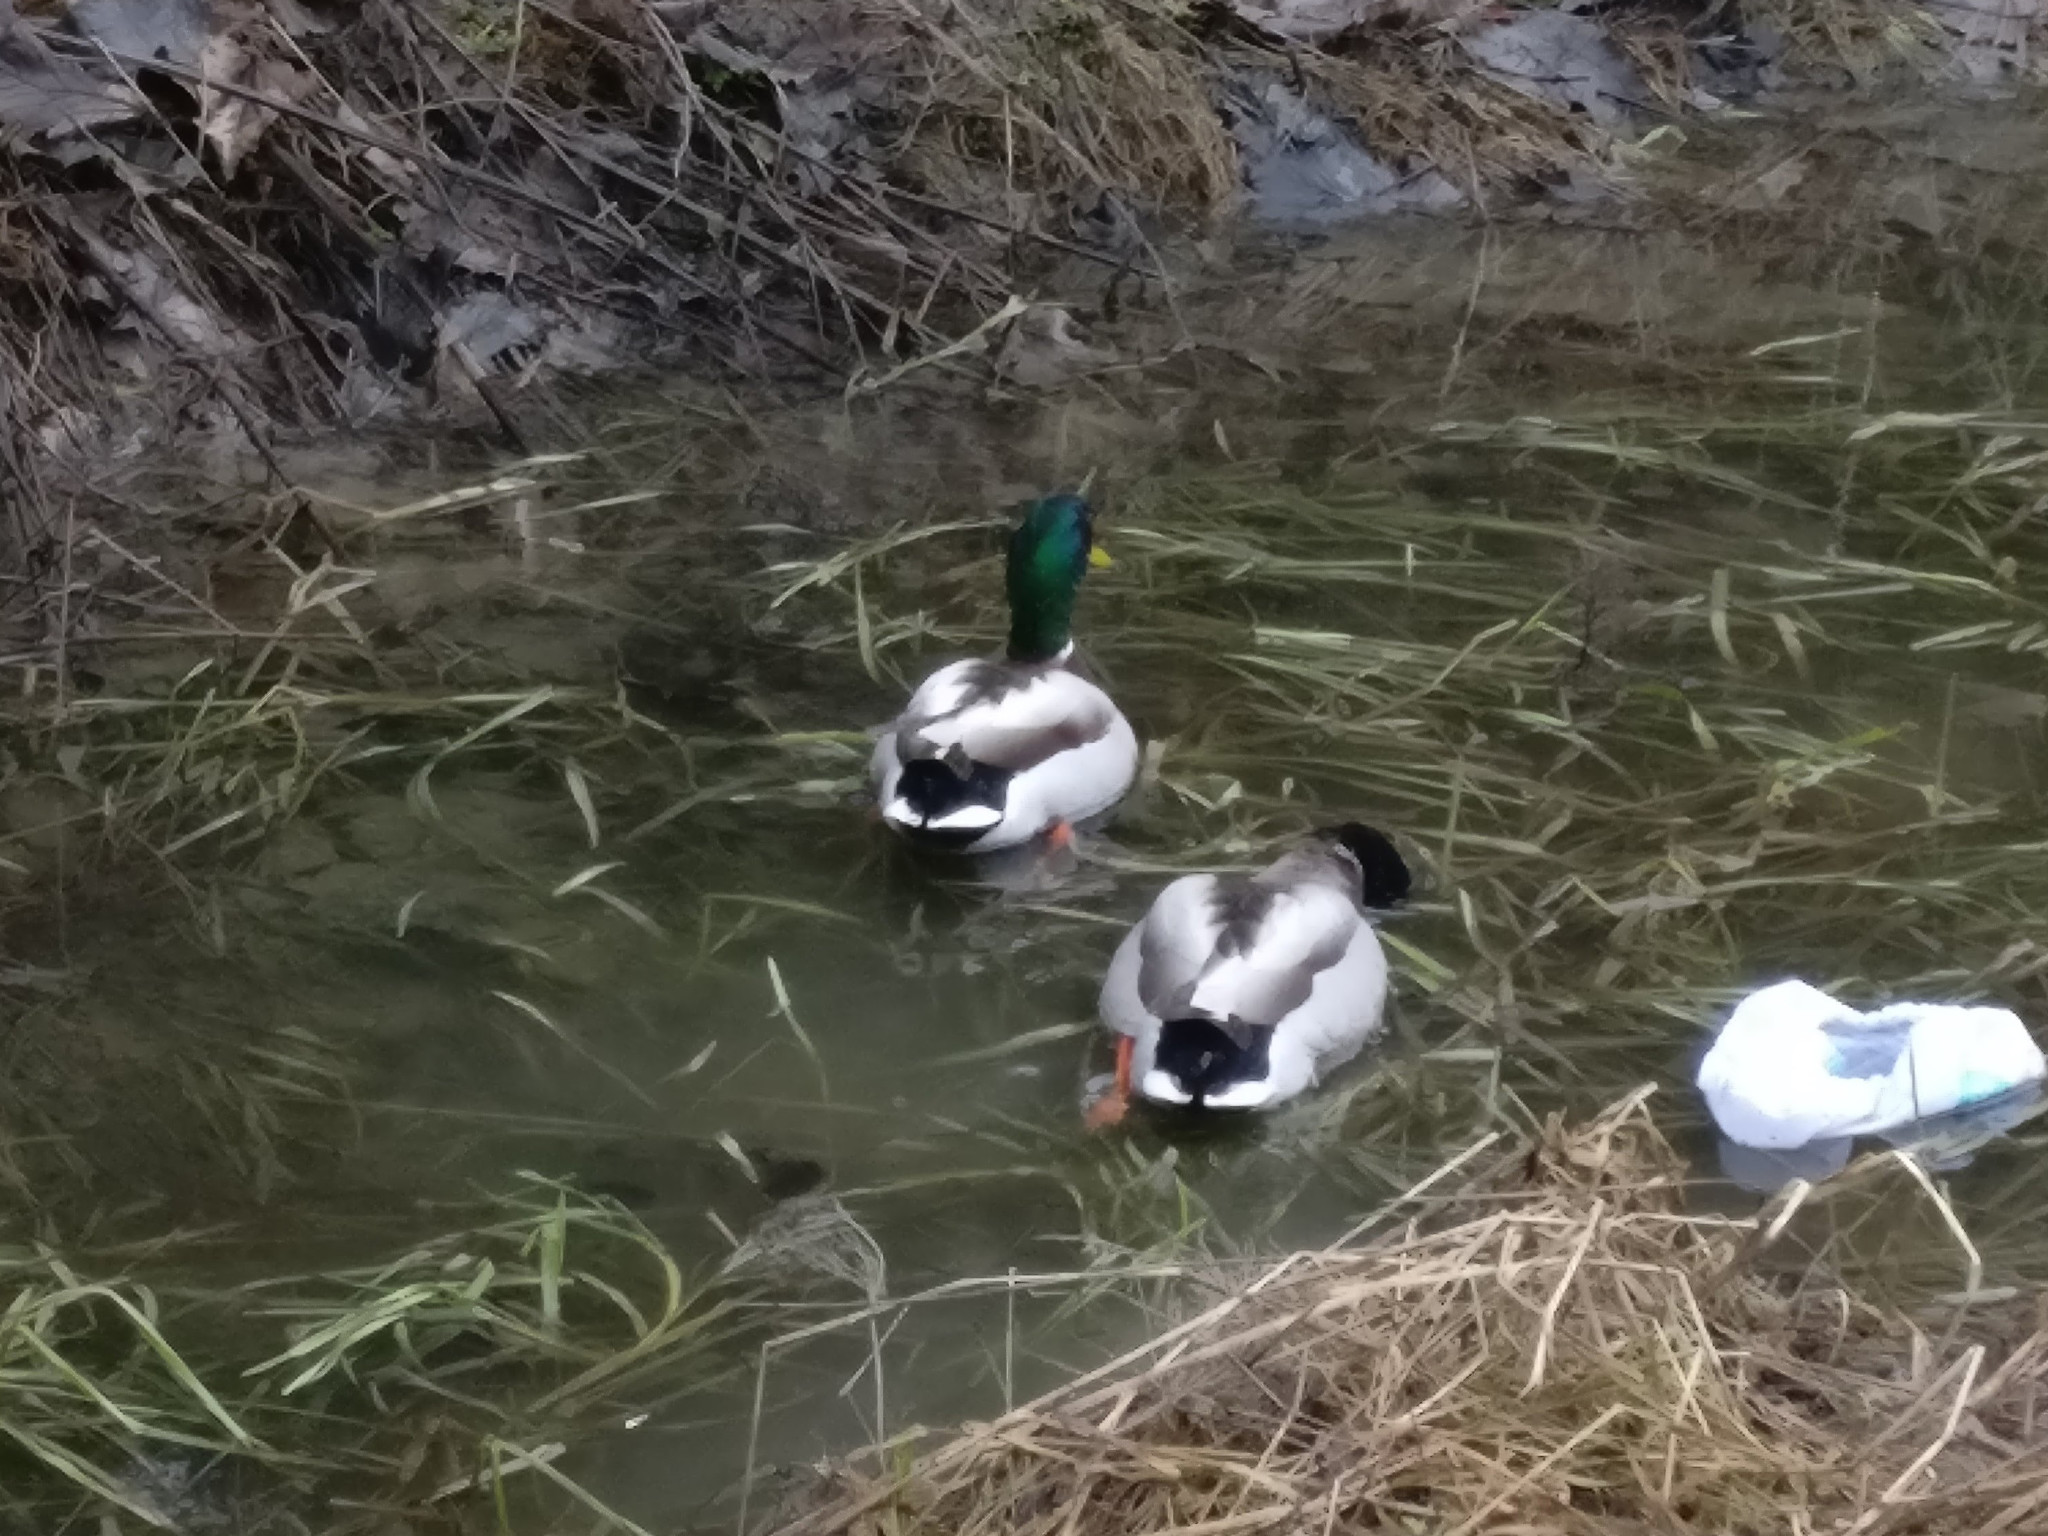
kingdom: Animalia
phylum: Chordata
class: Aves
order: Anseriformes
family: Anatidae
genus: Anas
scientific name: Anas platyrhynchos
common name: Mallard
